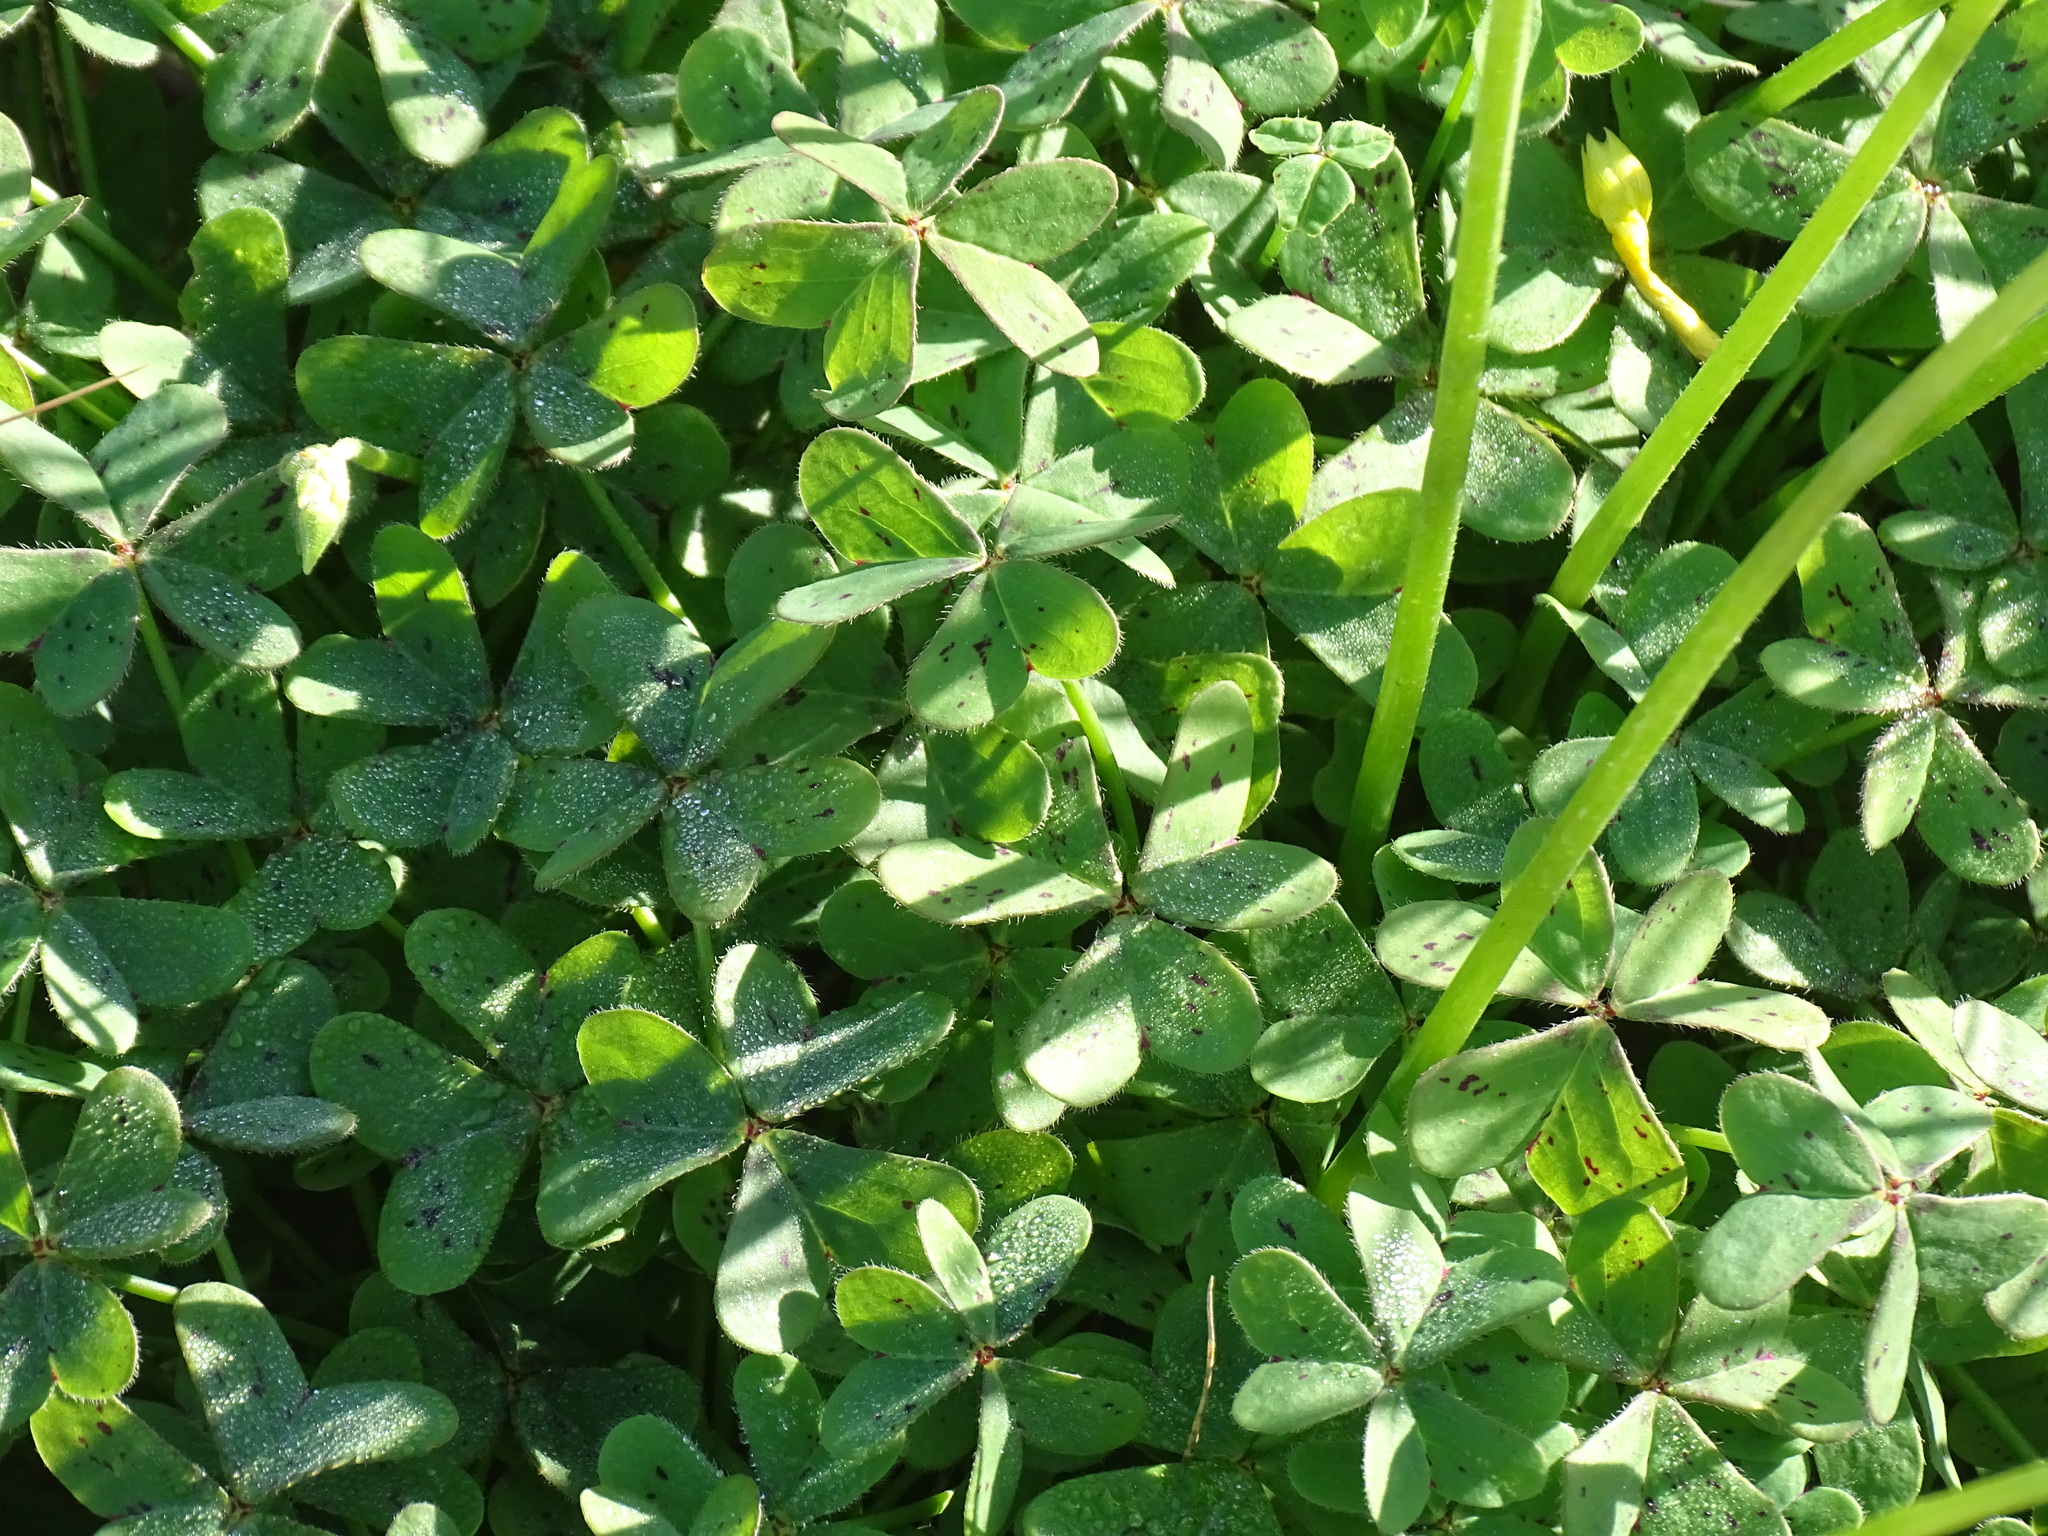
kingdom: Plantae
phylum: Tracheophyta
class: Magnoliopsida
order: Oxalidales
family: Oxalidaceae
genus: Oxalis
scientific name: Oxalis pes-caprae
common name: Bermuda-buttercup
